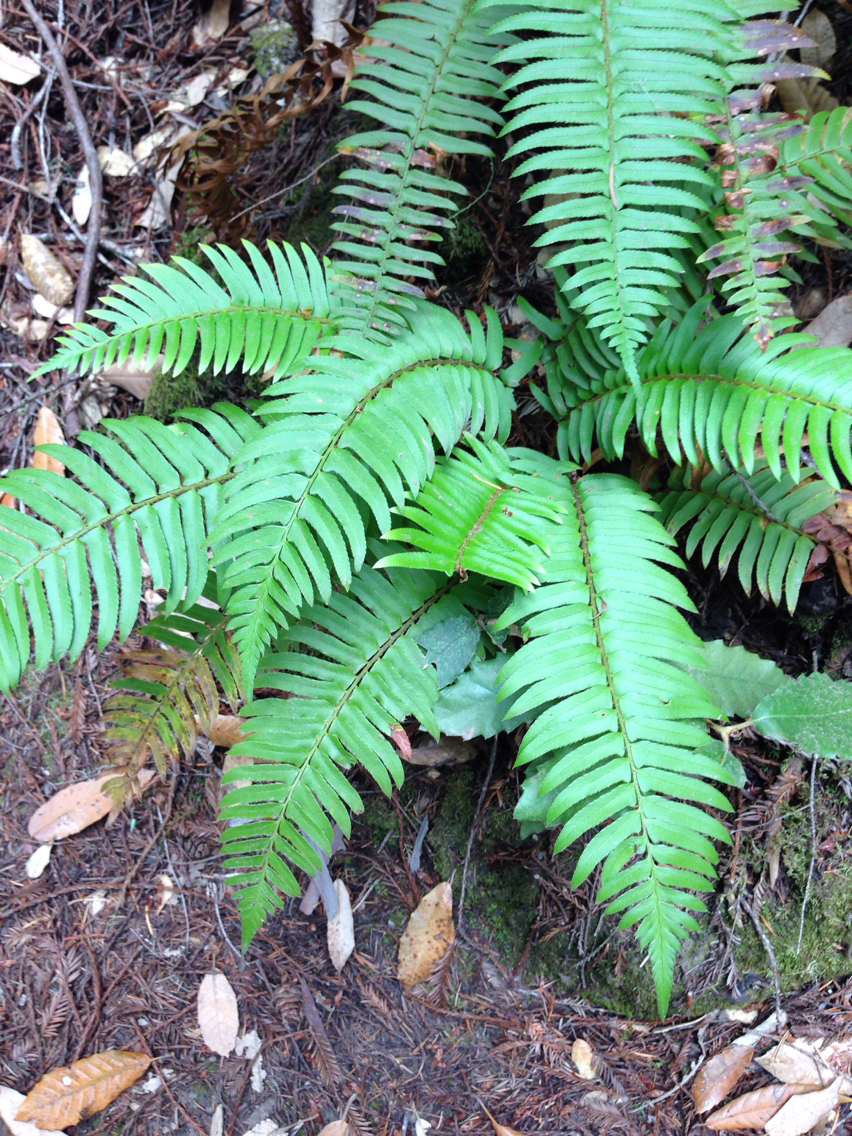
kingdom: Plantae
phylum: Tracheophyta
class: Polypodiopsida
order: Polypodiales
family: Dryopteridaceae
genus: Polystichum
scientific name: Polystichum munitum
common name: Western sword-fern
